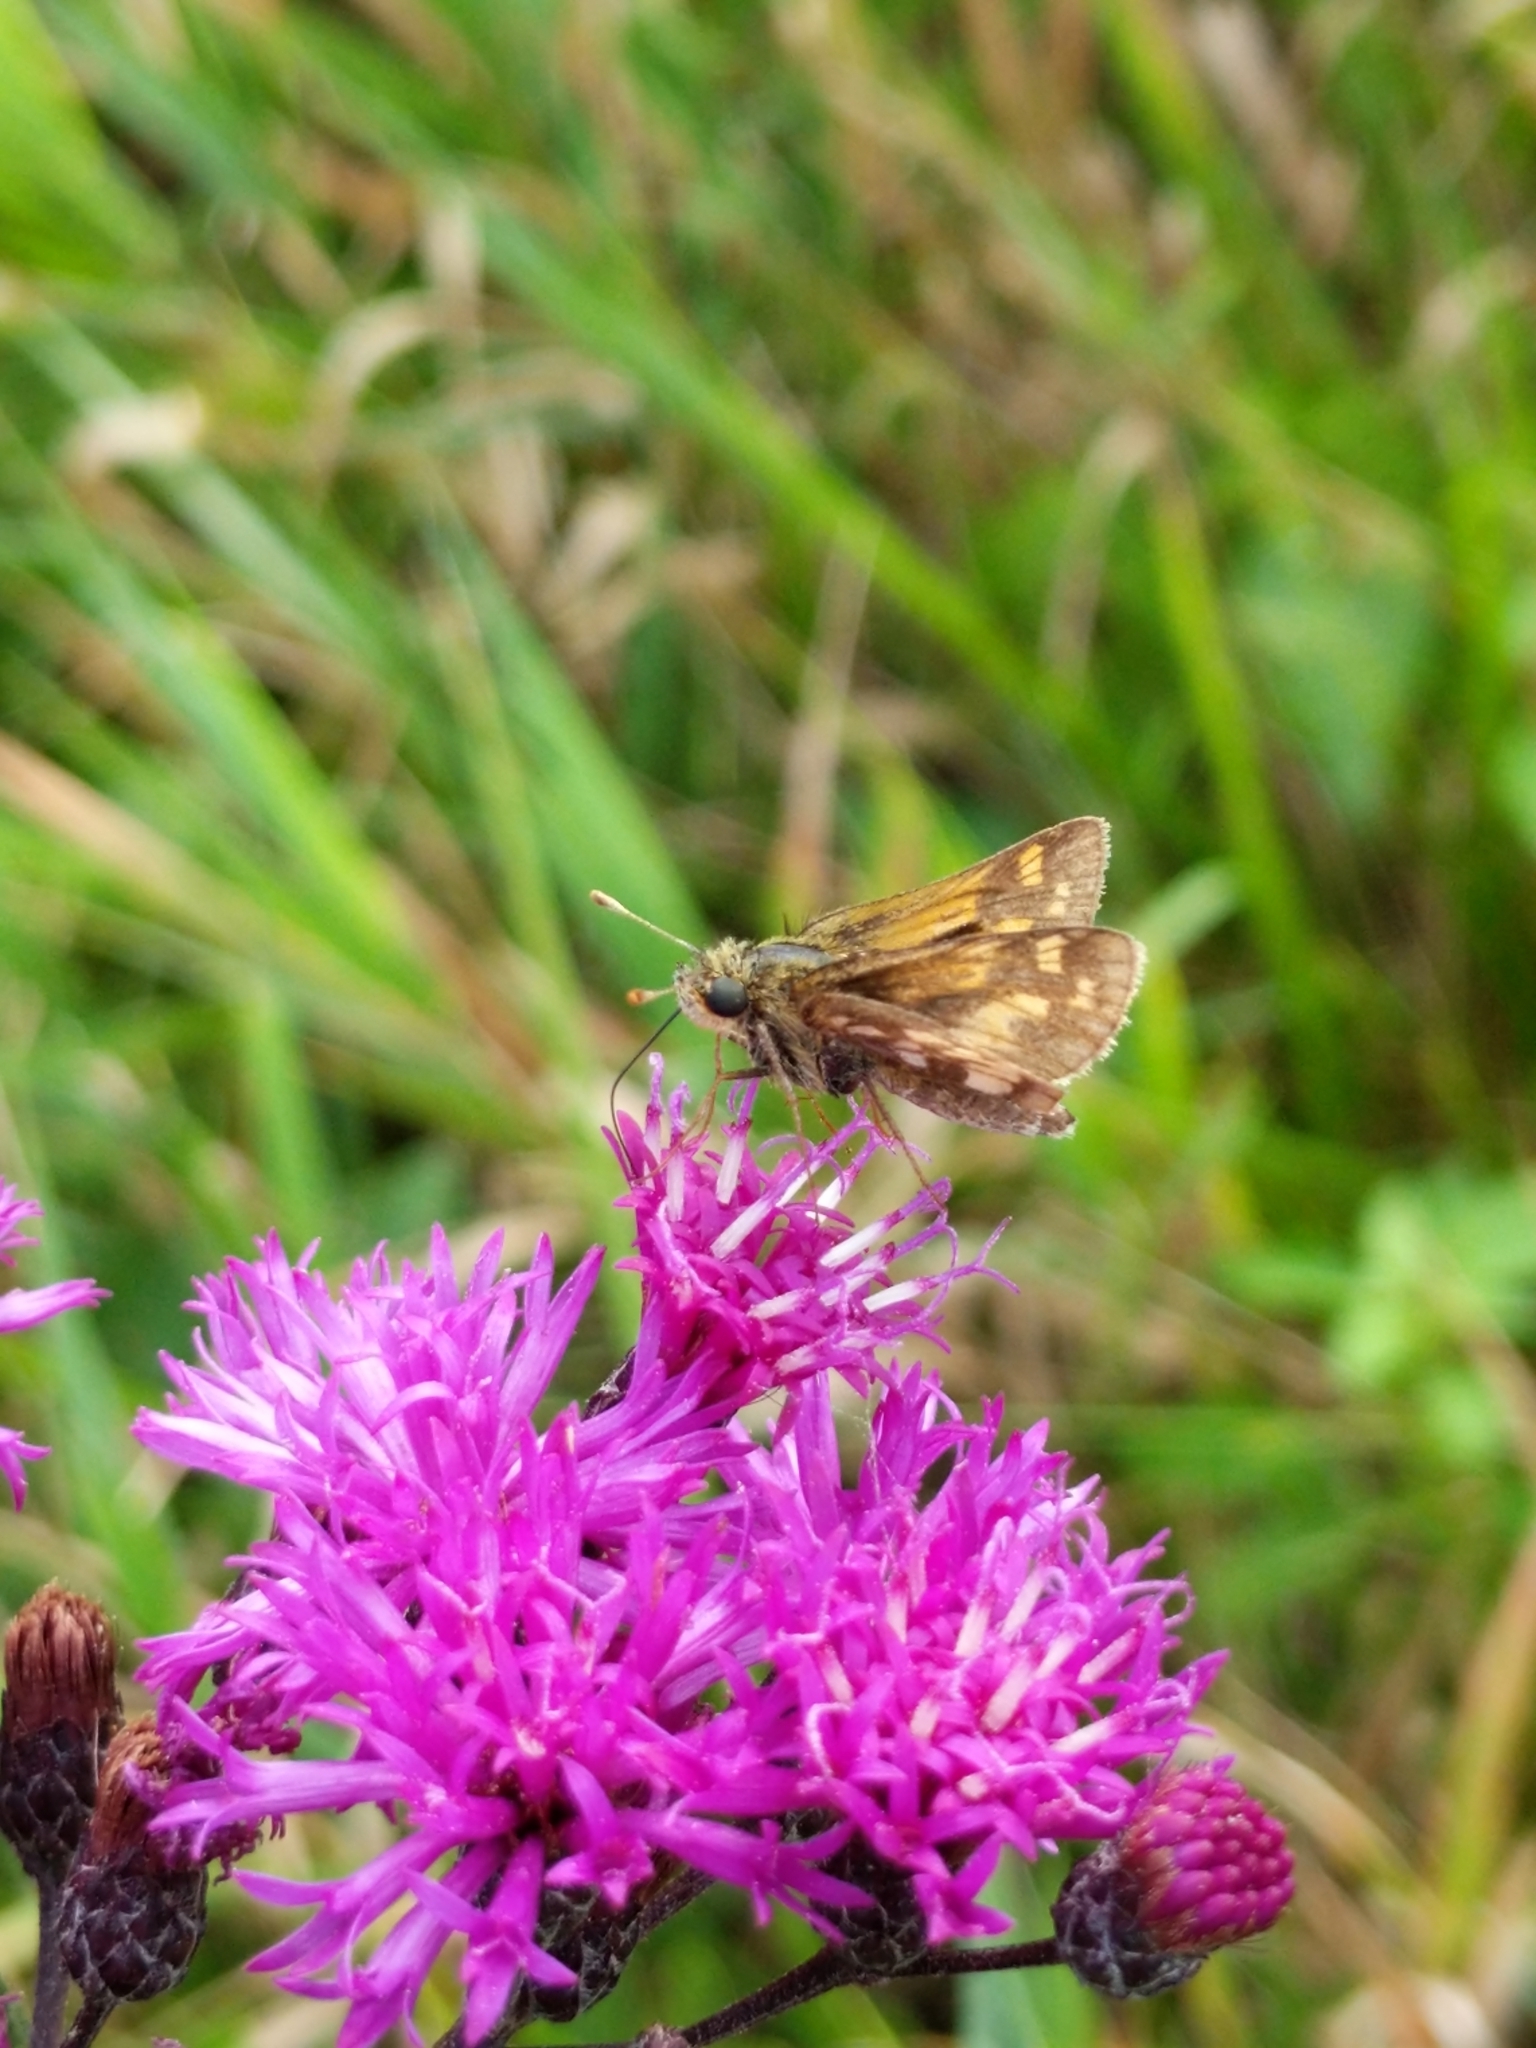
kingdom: Animalia
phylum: Arthropoda
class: Insecta
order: Lepidoptera
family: Hesperiidae
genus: Polites
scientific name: Polites coras
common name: Peck's skipper
